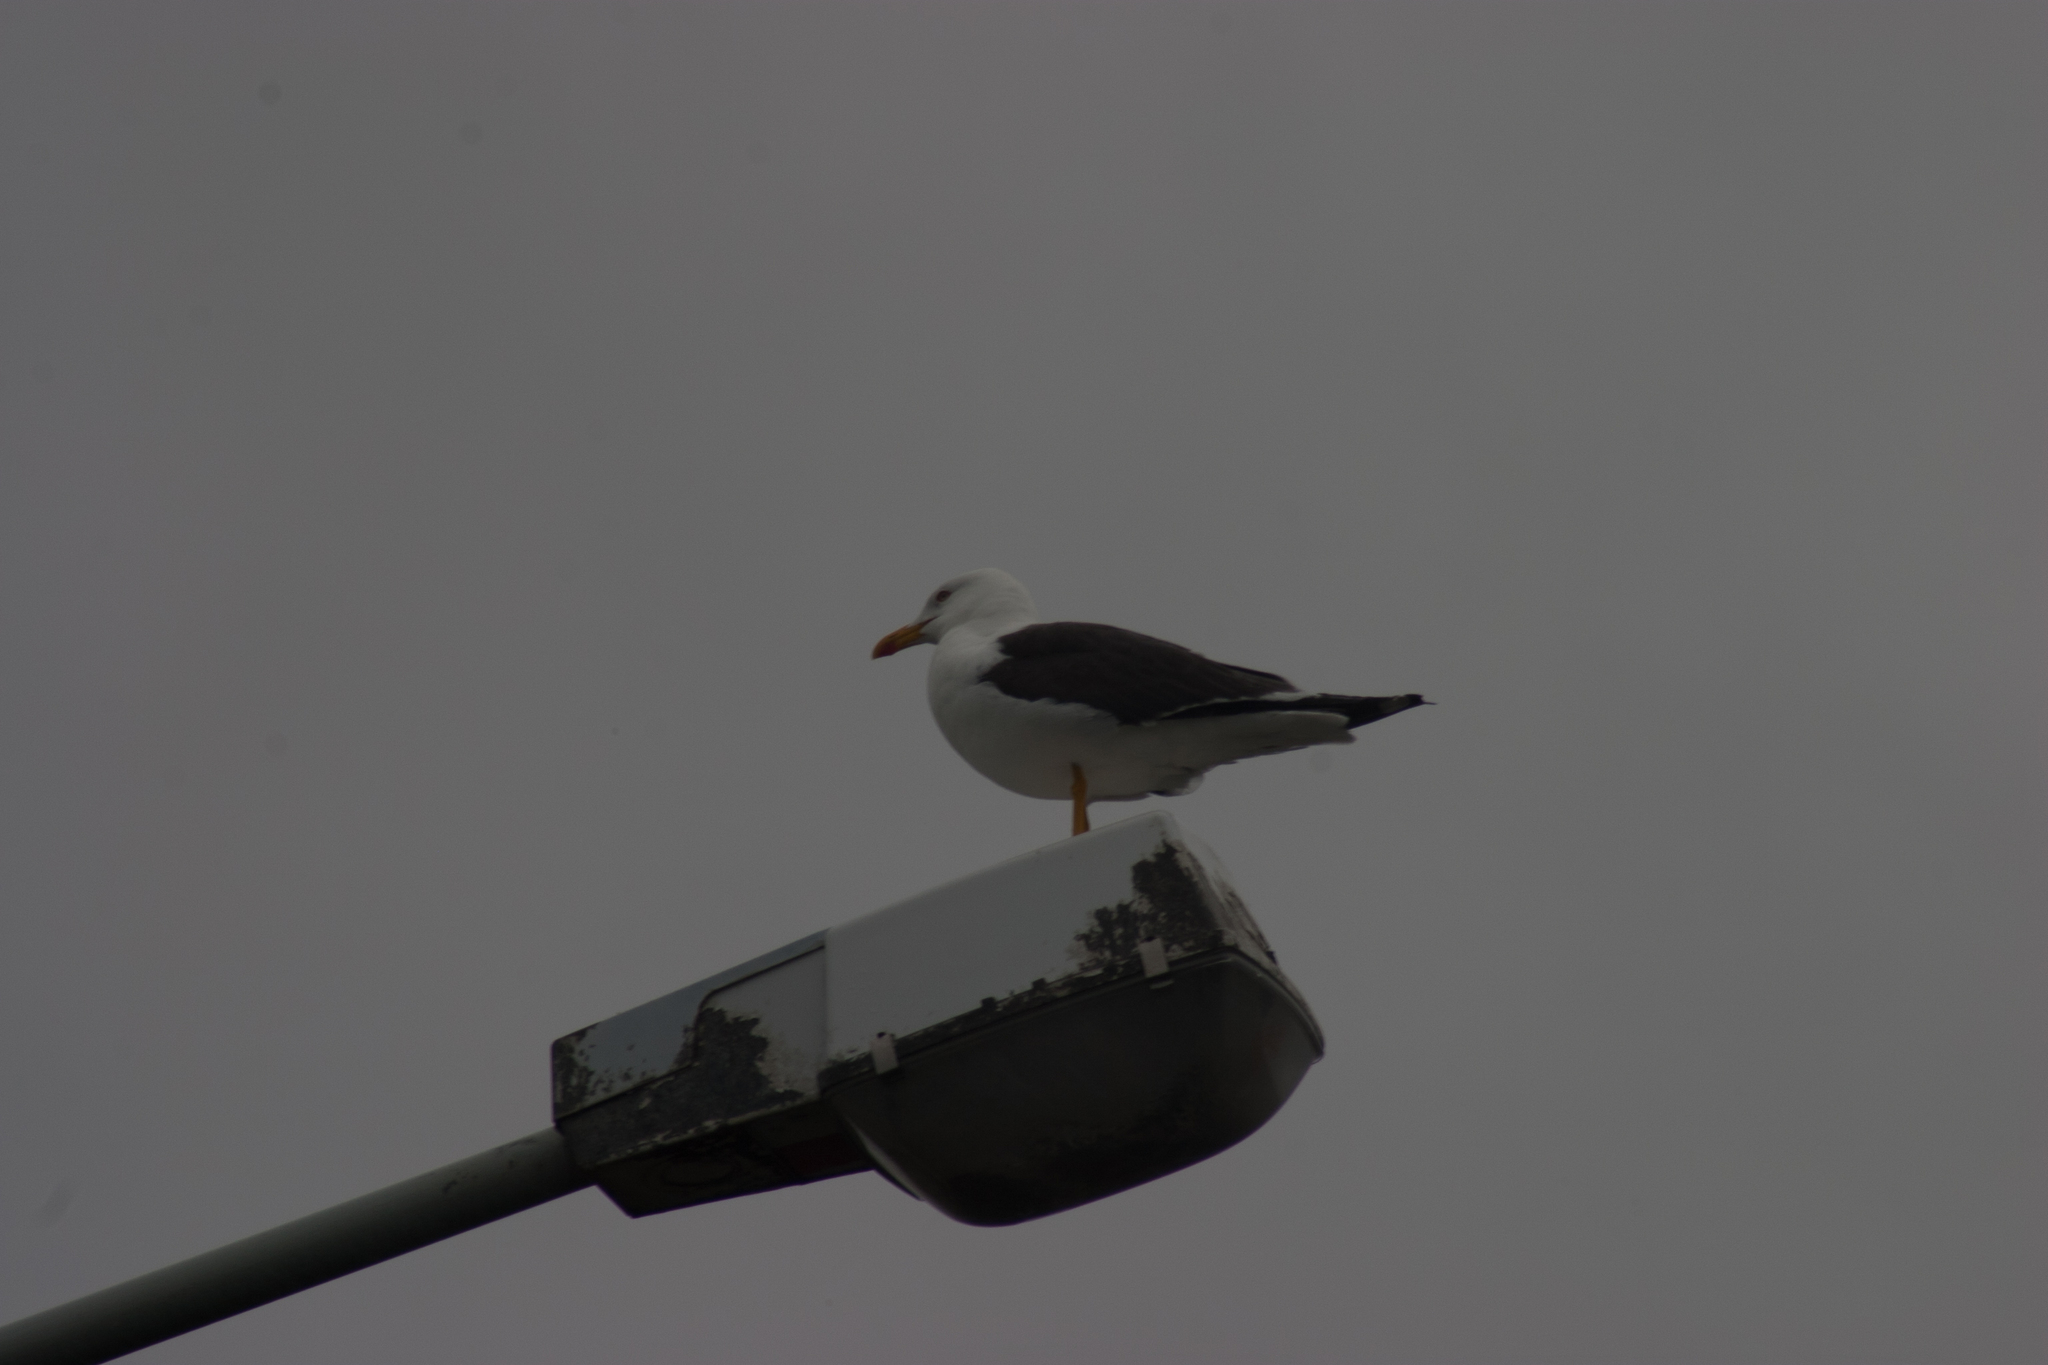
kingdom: Animalia
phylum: Chordata
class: Aves
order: Charadriiformes
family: Laridae
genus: Larus
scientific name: Larus fuscus
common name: Lesser black-backed gull
